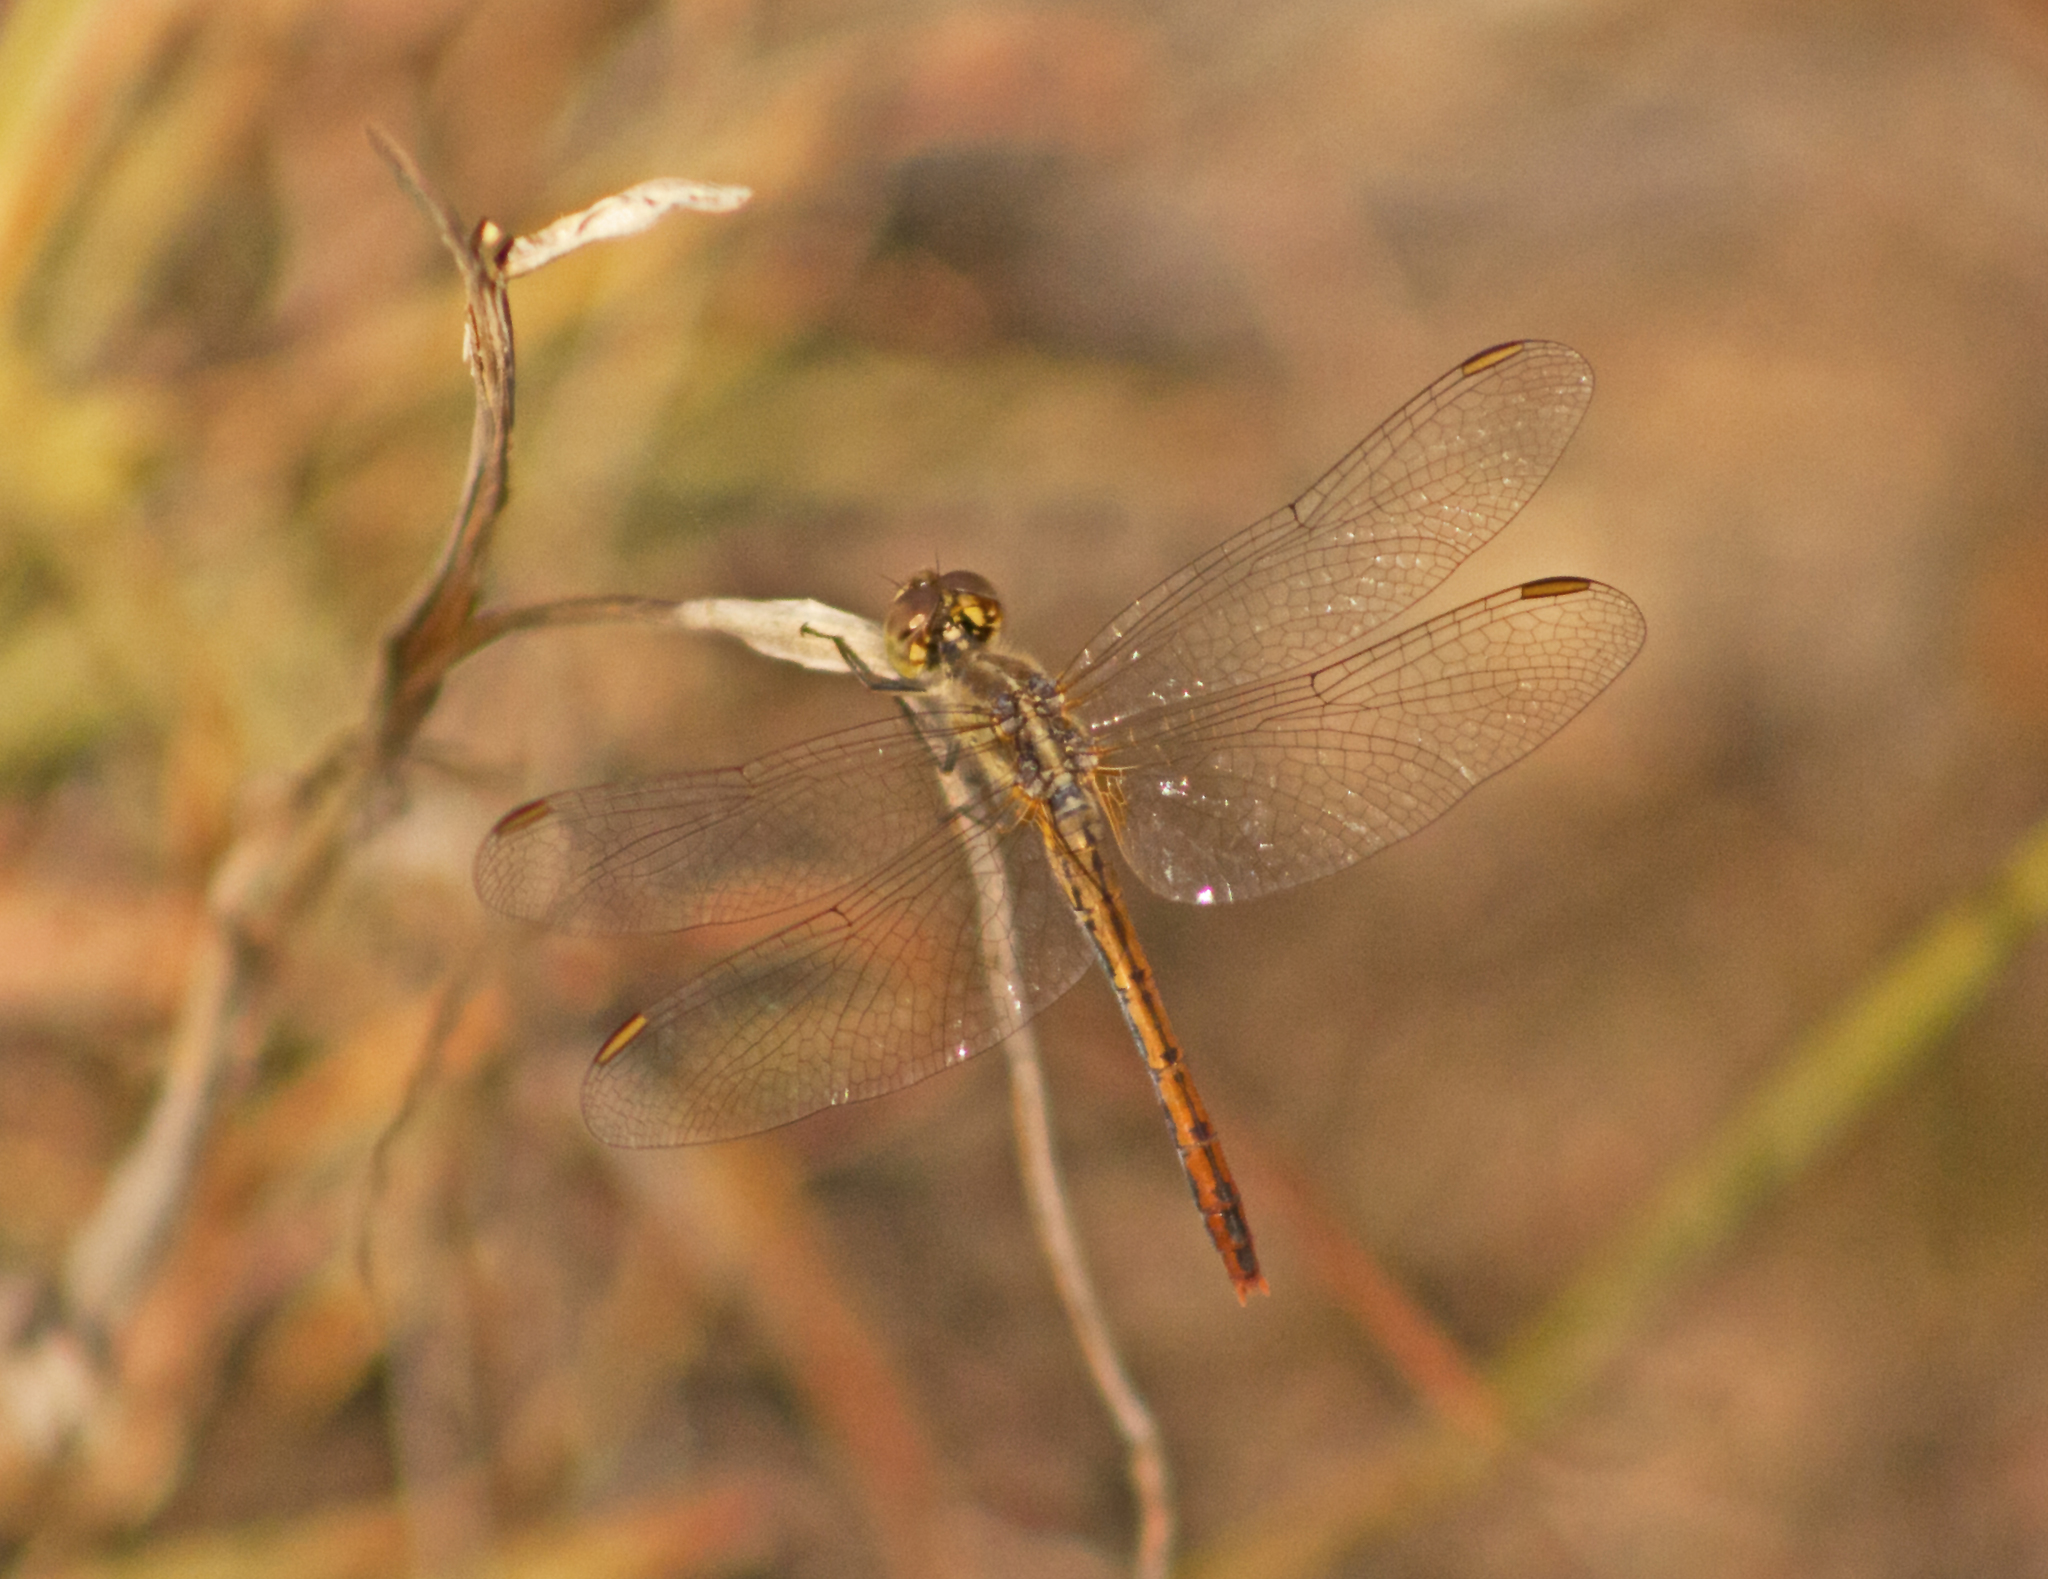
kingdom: Animalia
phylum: Arthropoda
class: Insecta
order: Odonata
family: Libellulidae
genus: Diplacodes
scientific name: Diplacodes bipunctata
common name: Red percher dragonfly
